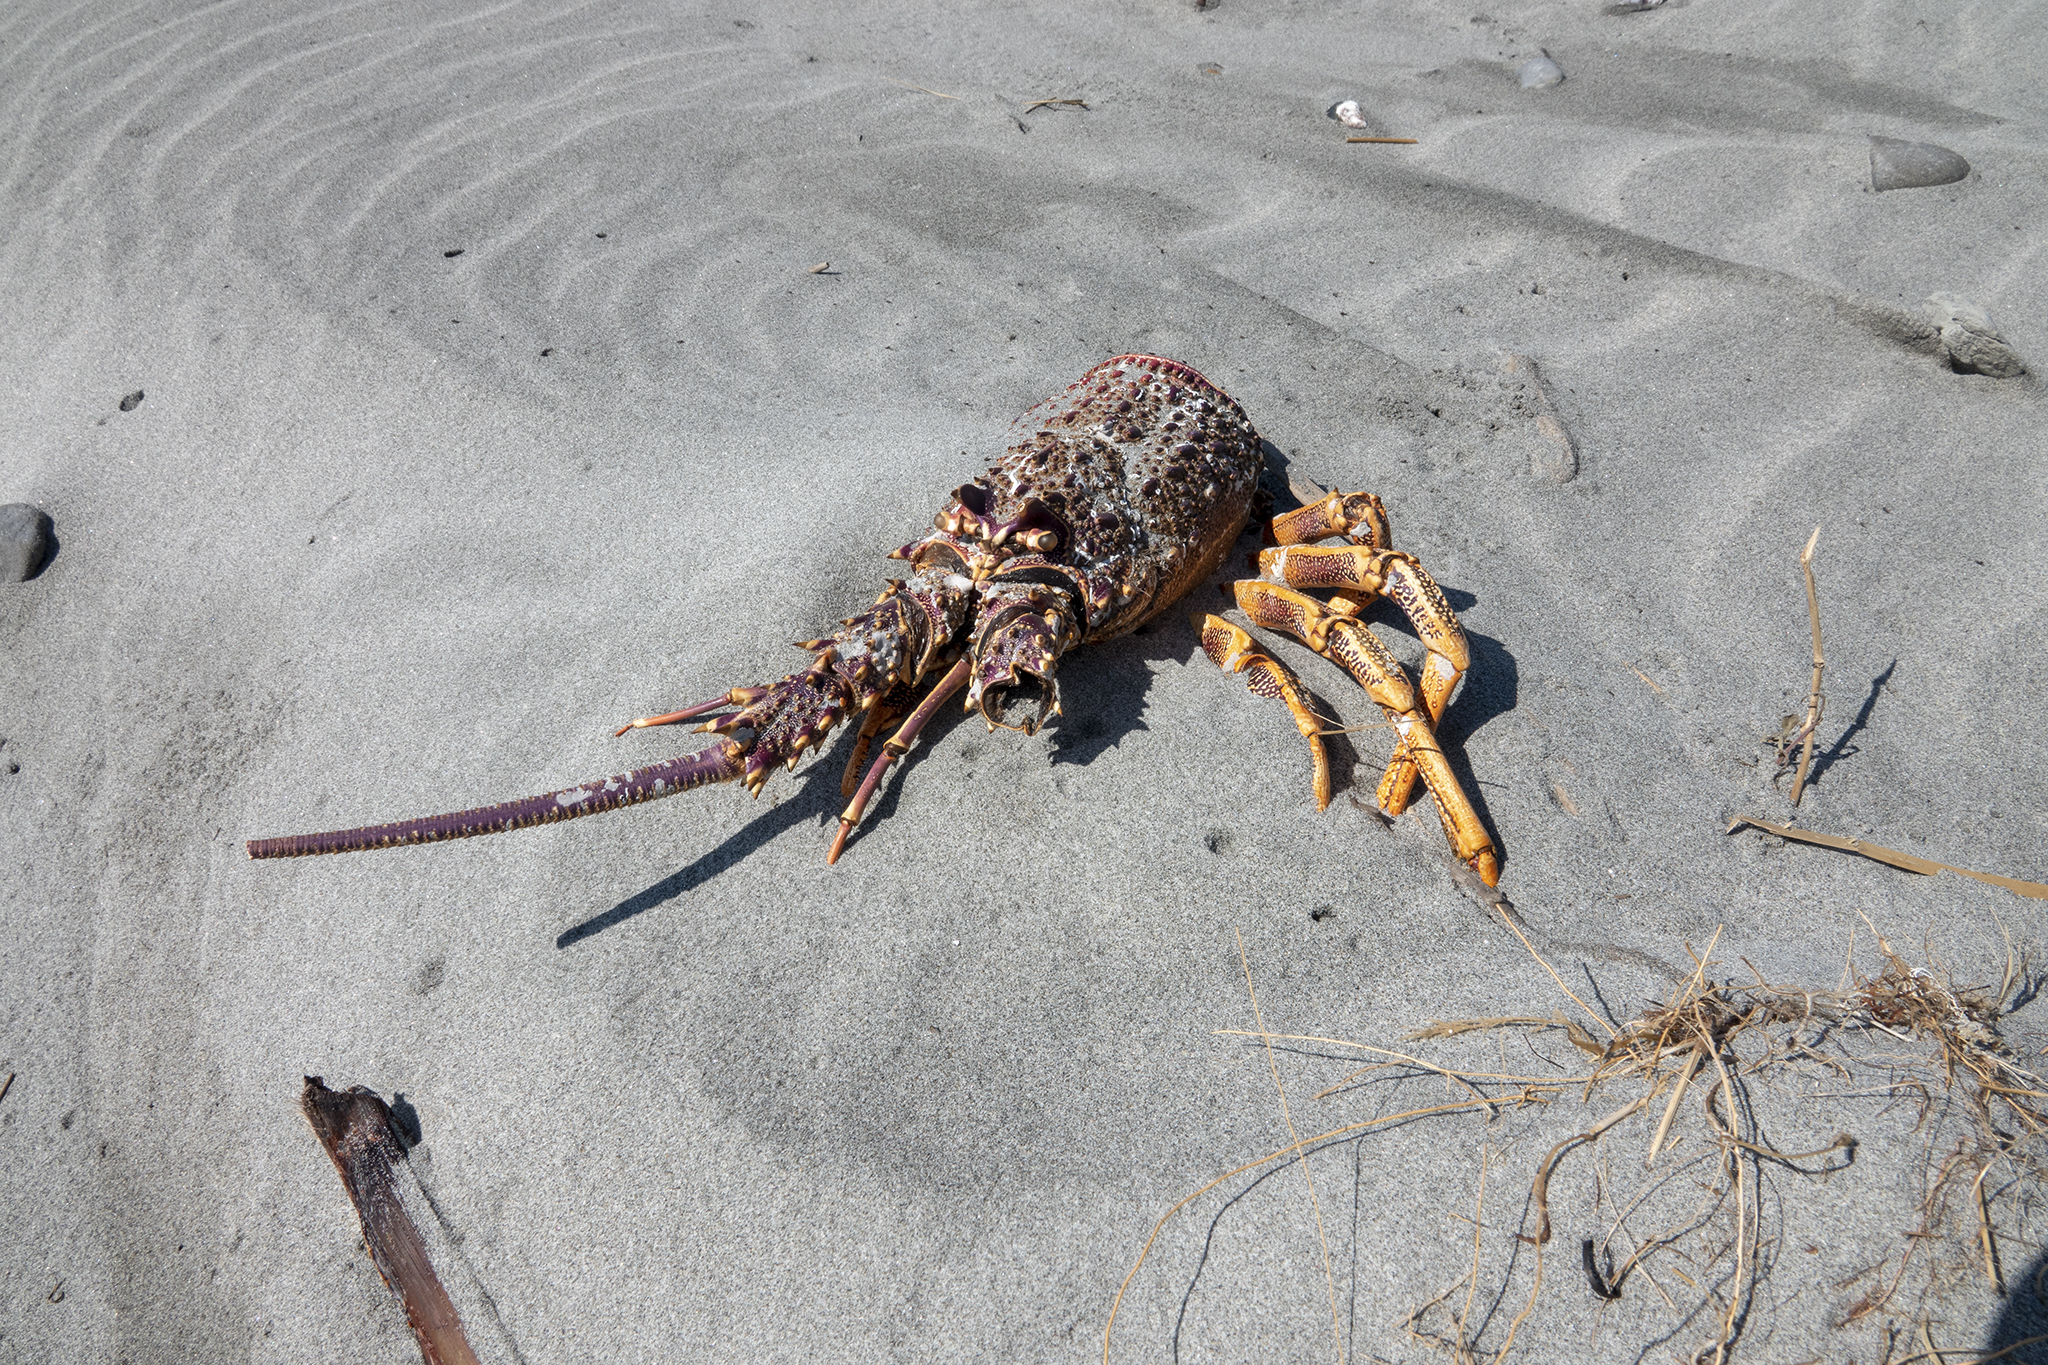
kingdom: Animalia
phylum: Arthropoda
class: Malacostraca
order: Decapoda
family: Palinuridae
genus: Jasus
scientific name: Jasus edwardsii
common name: Red rock lobster
